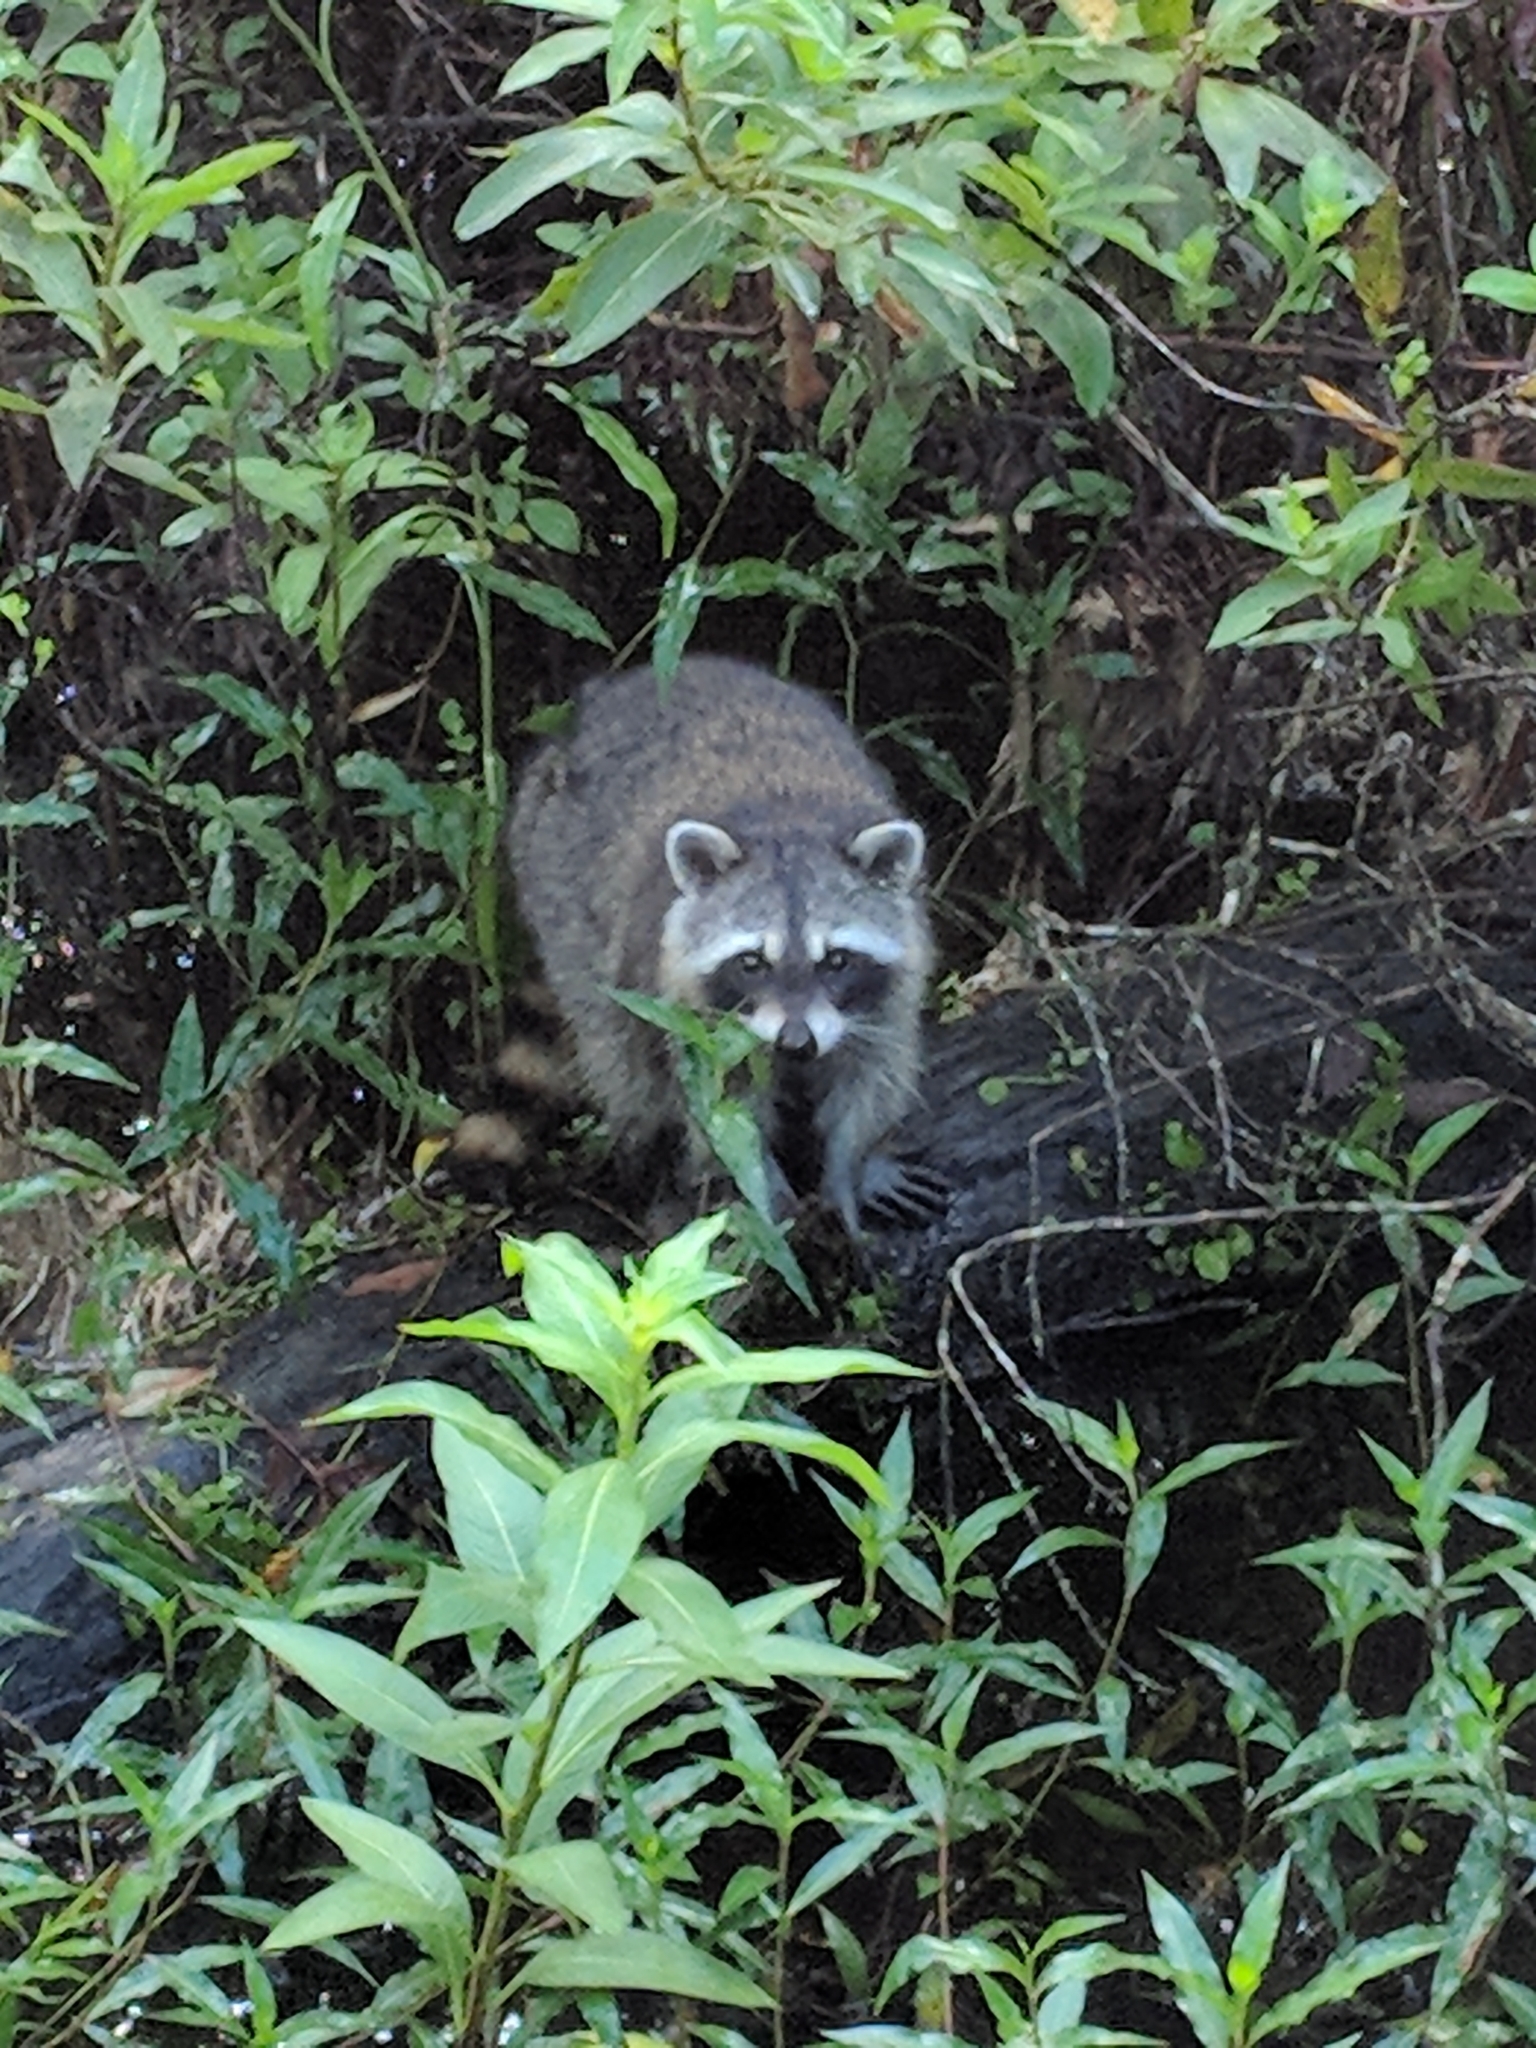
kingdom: Animalia
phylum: Chordata
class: Mammalia
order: Carnivora
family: Procyonidae
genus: Procyon
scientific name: Procyon lotor
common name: Raccoon
